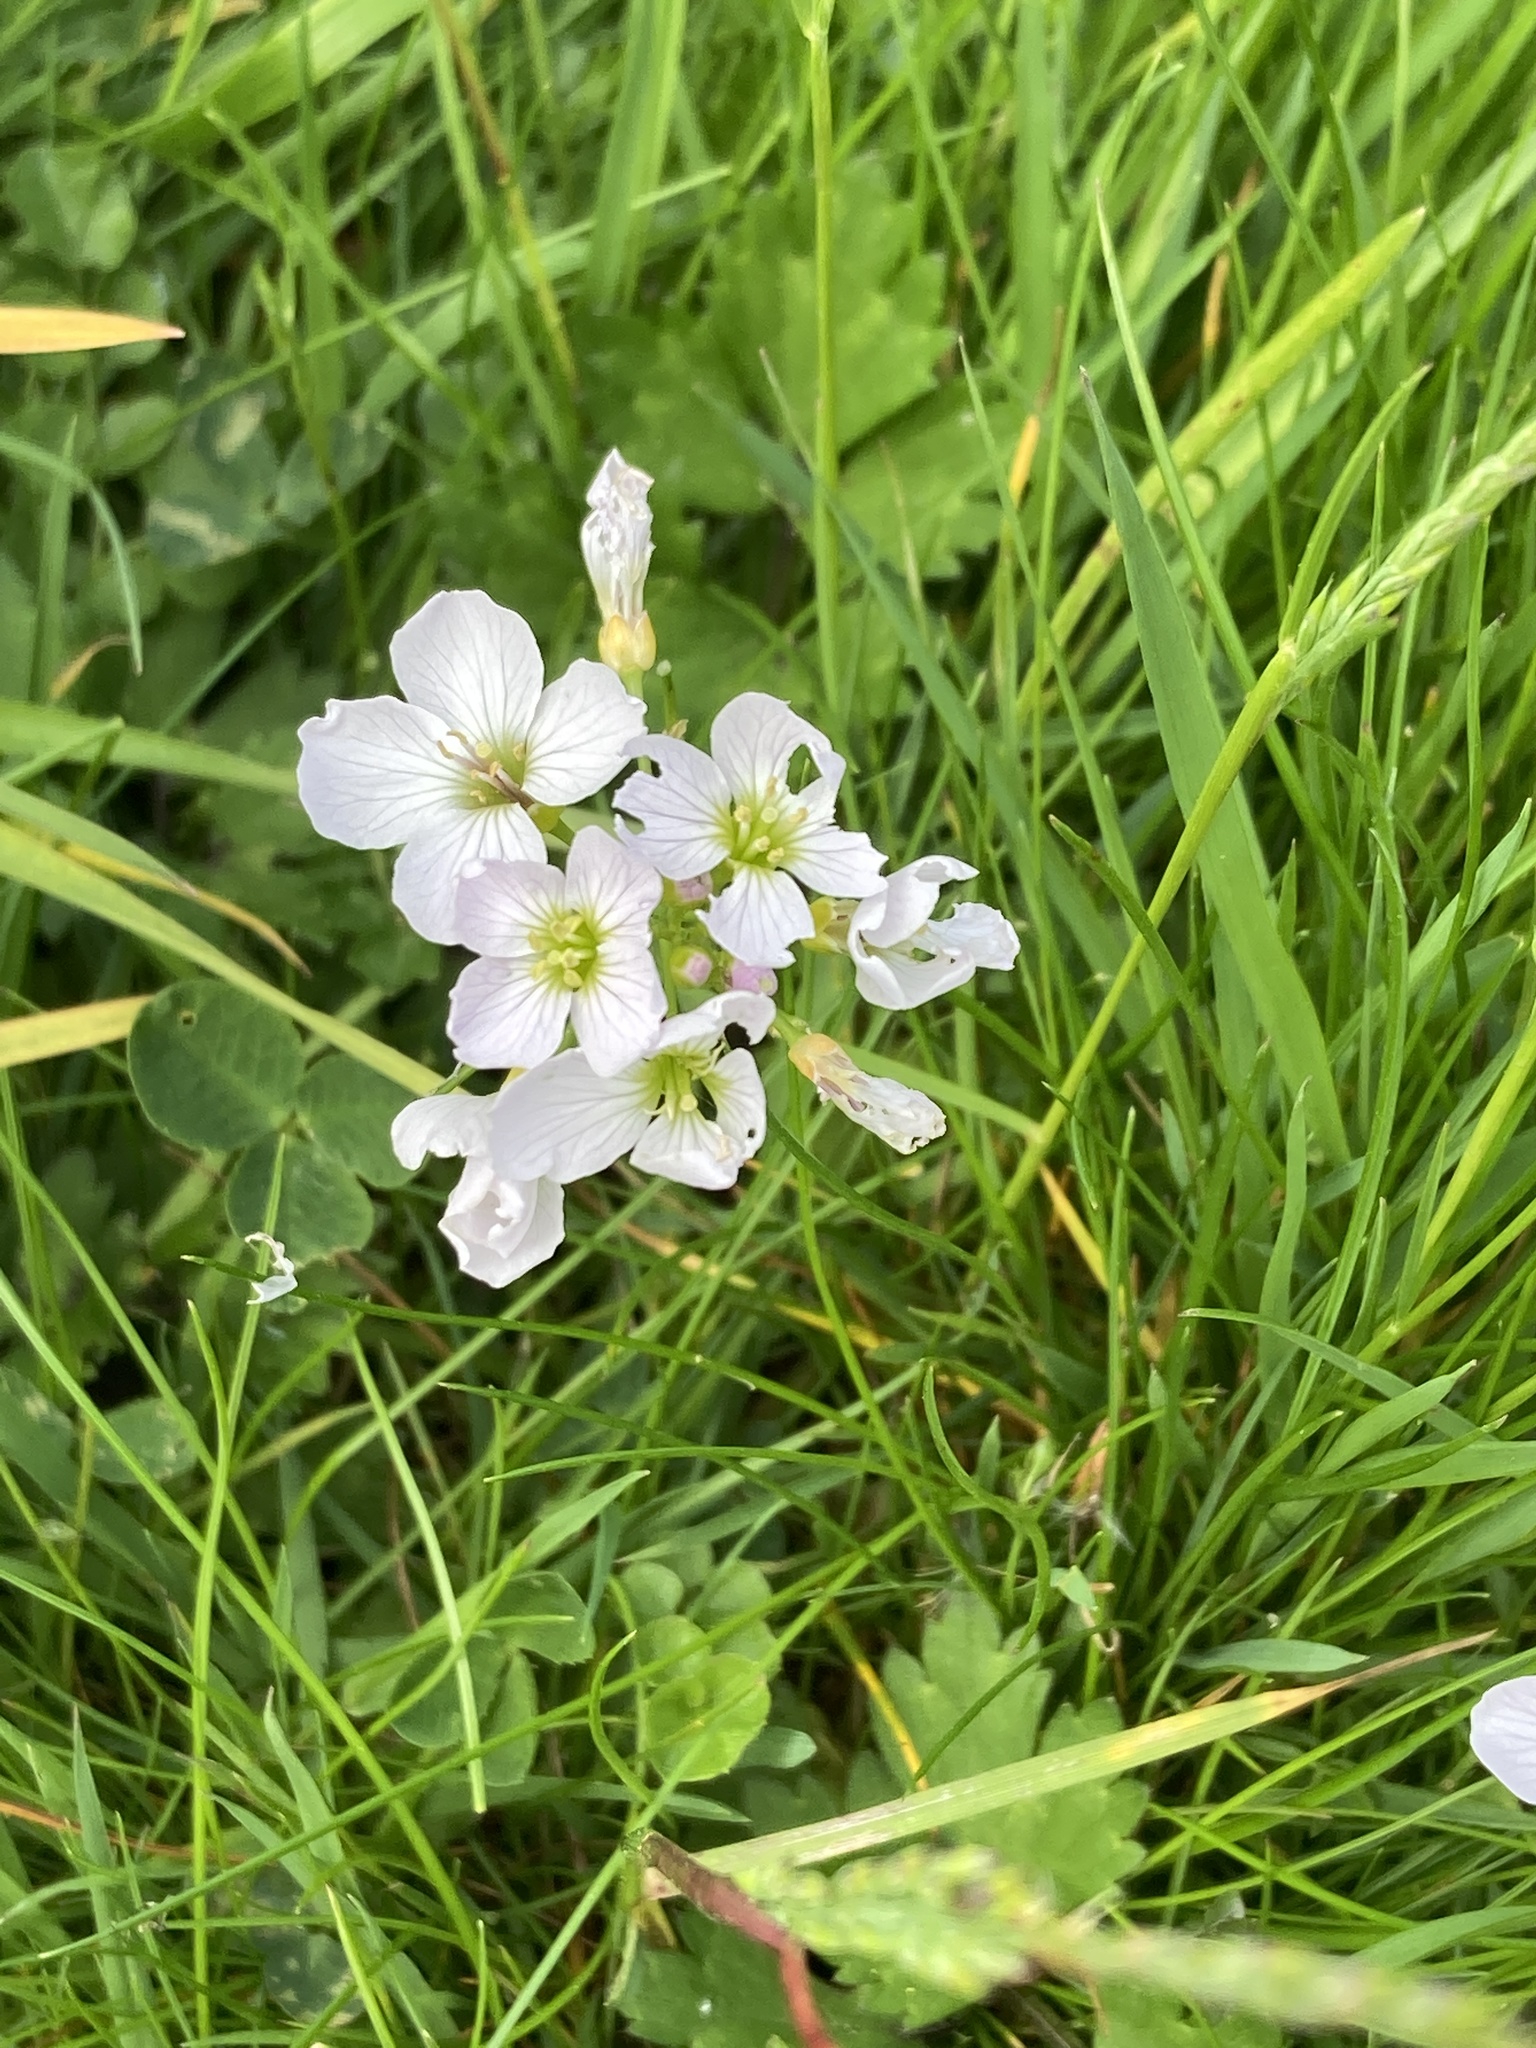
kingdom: Plantae
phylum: Tracheophyta
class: Magnoliopsida
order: Brassicales
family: Brassicaceae
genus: Cardamine
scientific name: Cardamine pratensis
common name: Cuckoo flower
